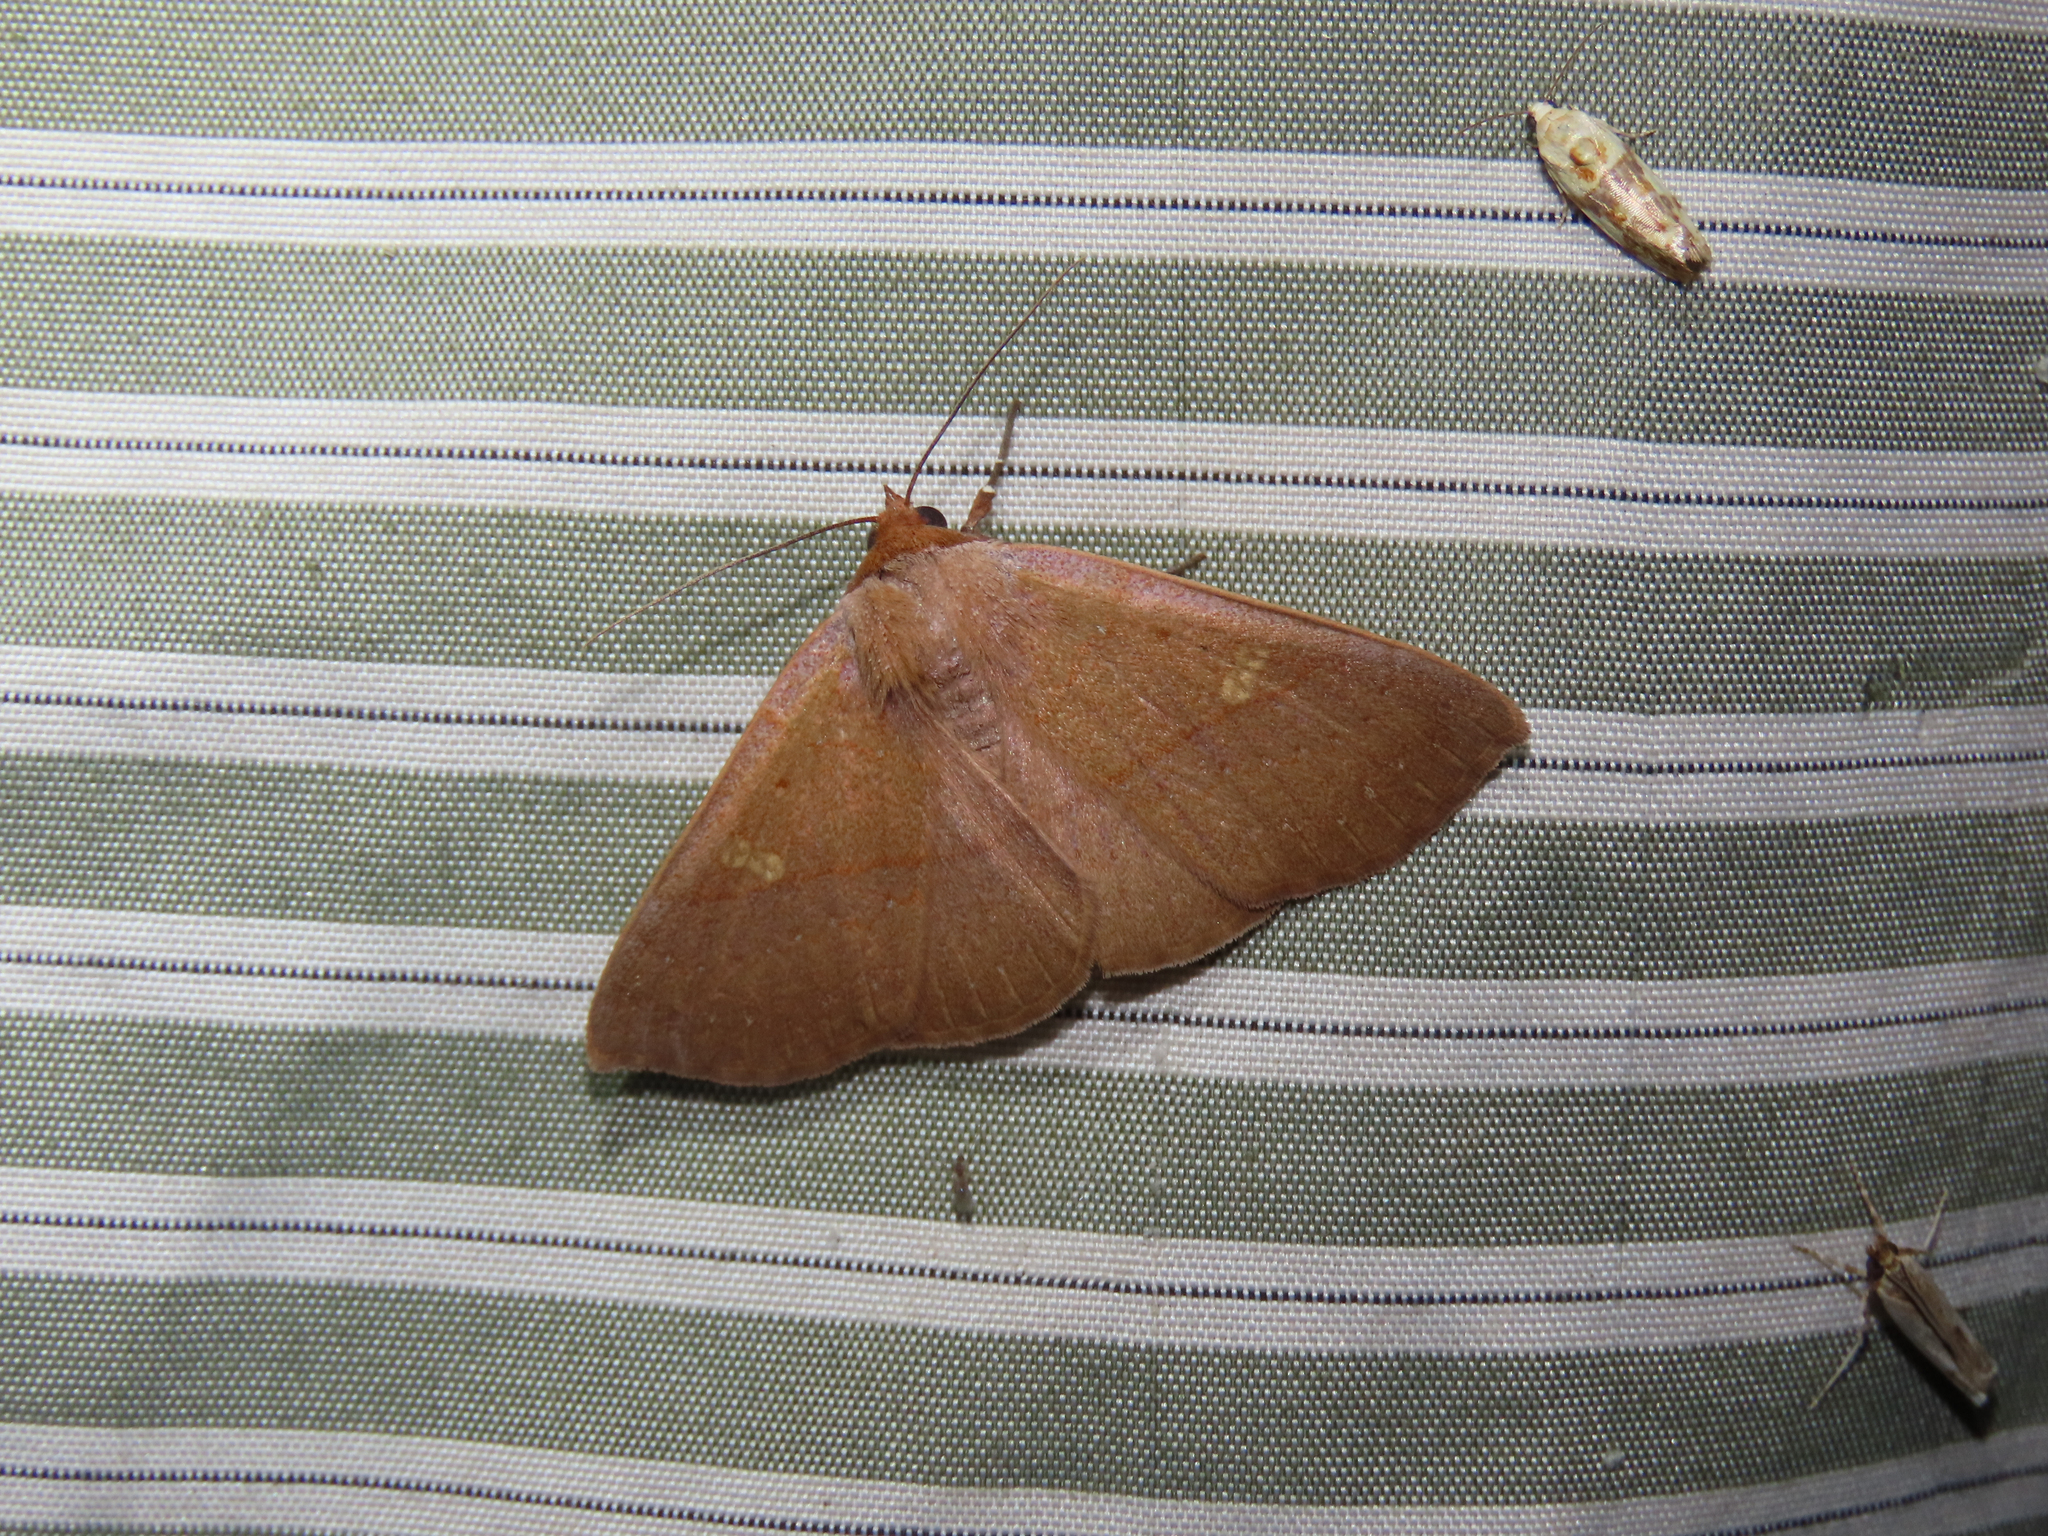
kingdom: Animalia
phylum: Arthropoda
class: Insecta
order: Lepidoptera
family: Erebidae
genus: Panopoda
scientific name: Panopoda rigida
